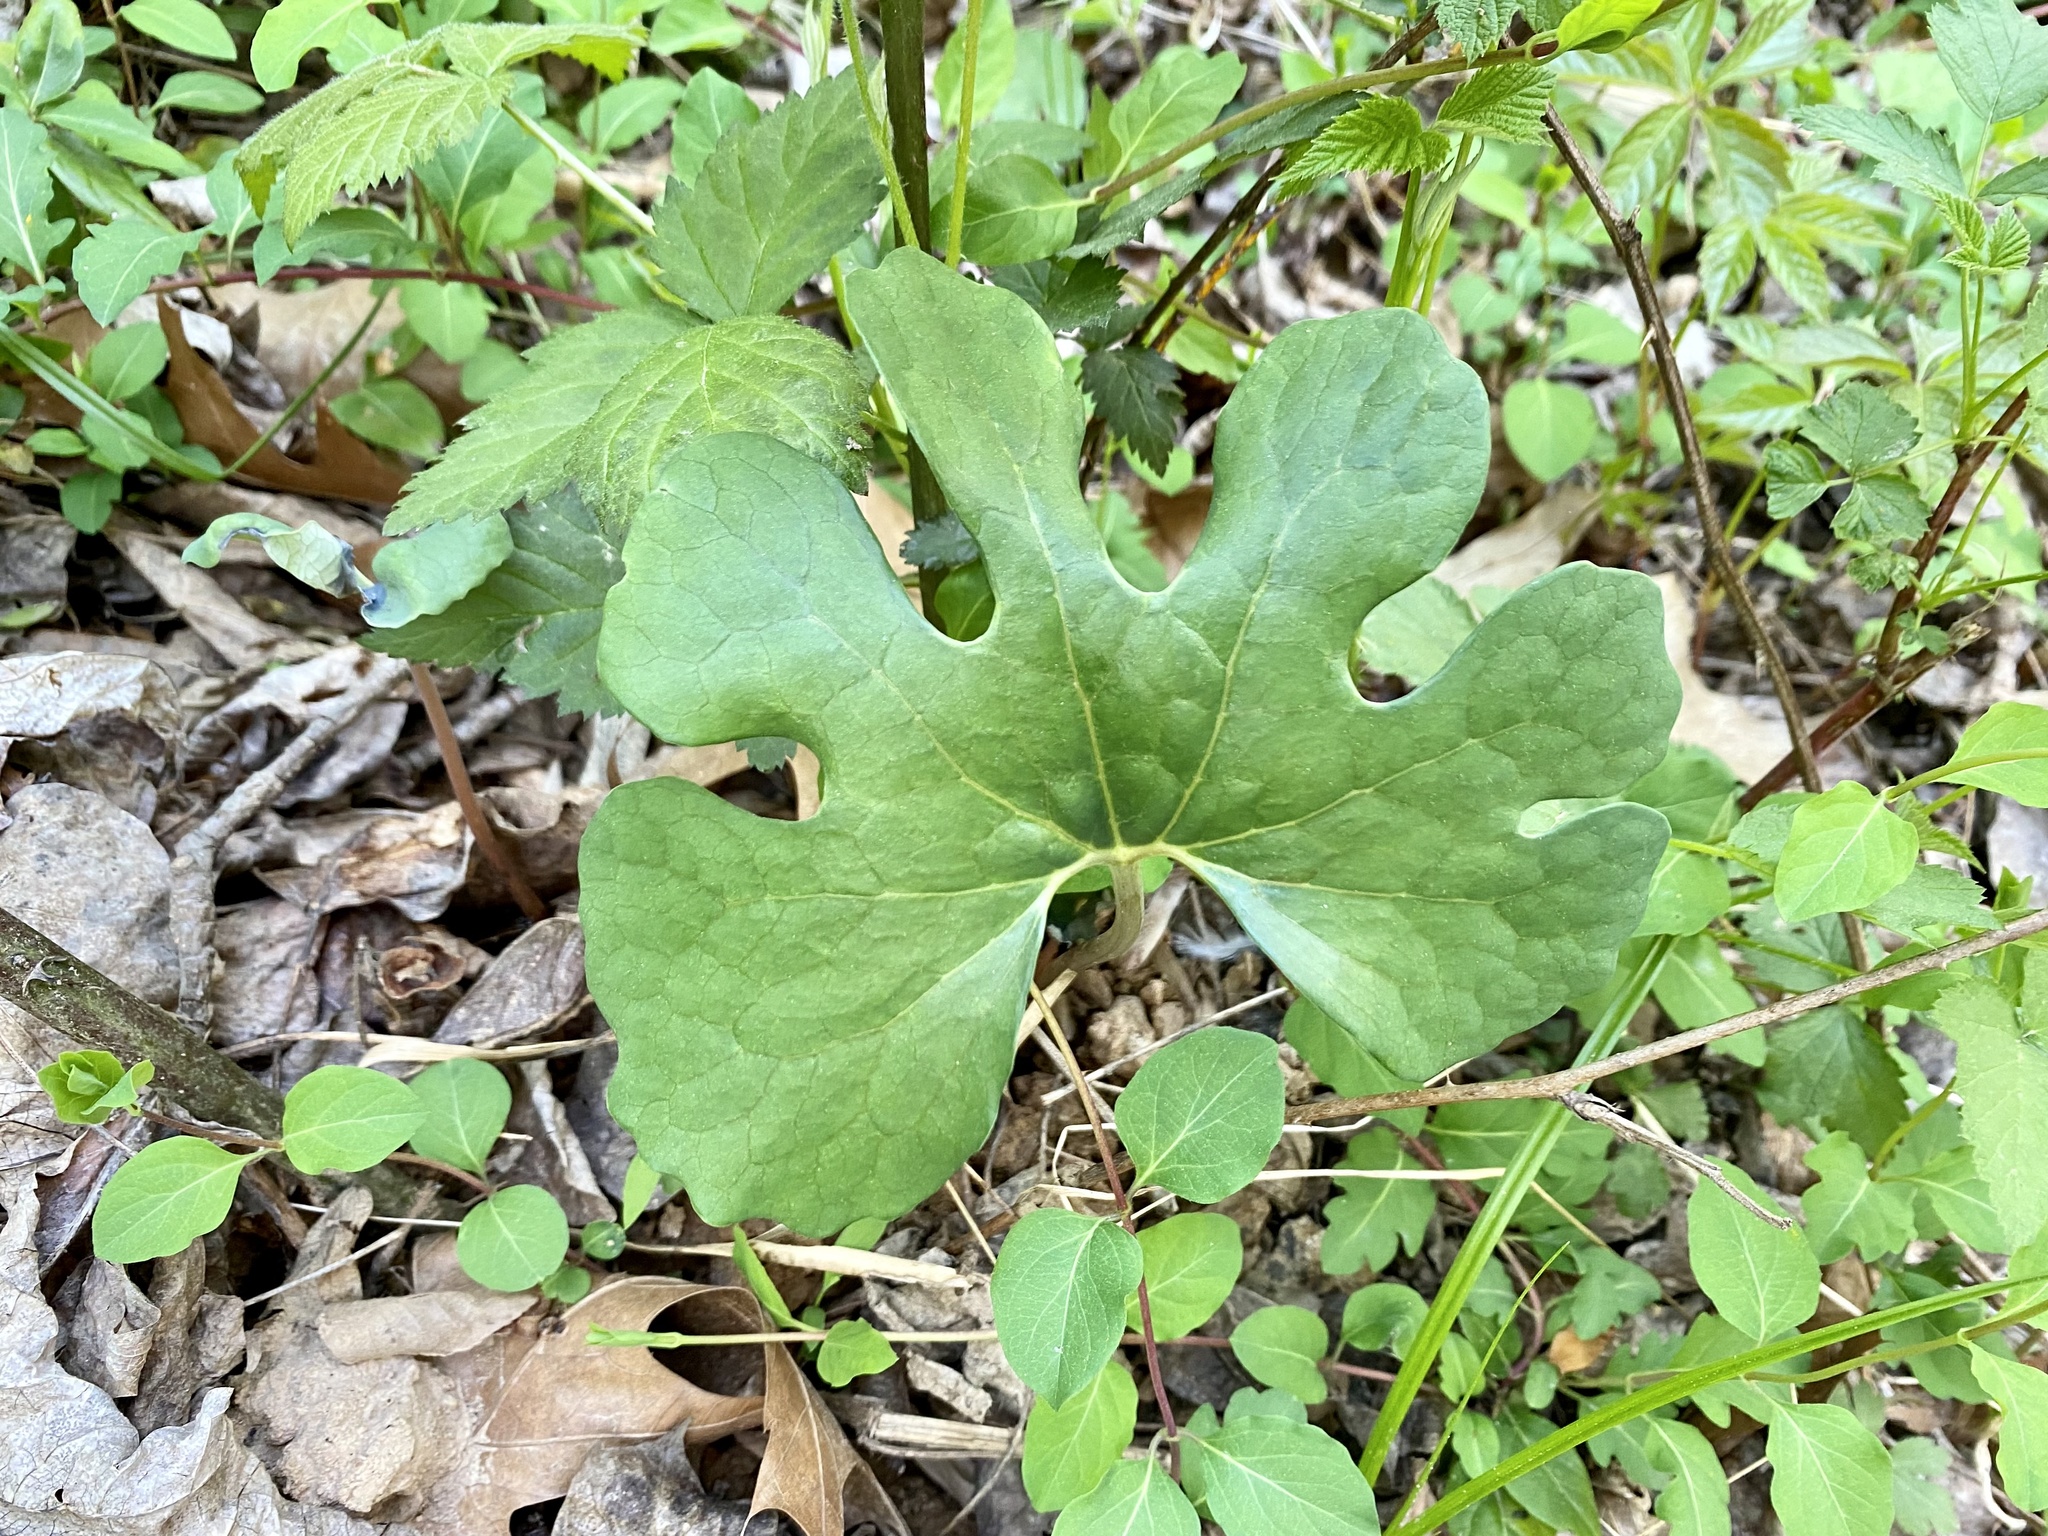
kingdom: Plantae
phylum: Tracheophyta
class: Magnoliopsida
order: Ranunculales
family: Papaveraceae
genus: Sanguinaria
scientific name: Sanguinaria canadensis
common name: Bloodroot
